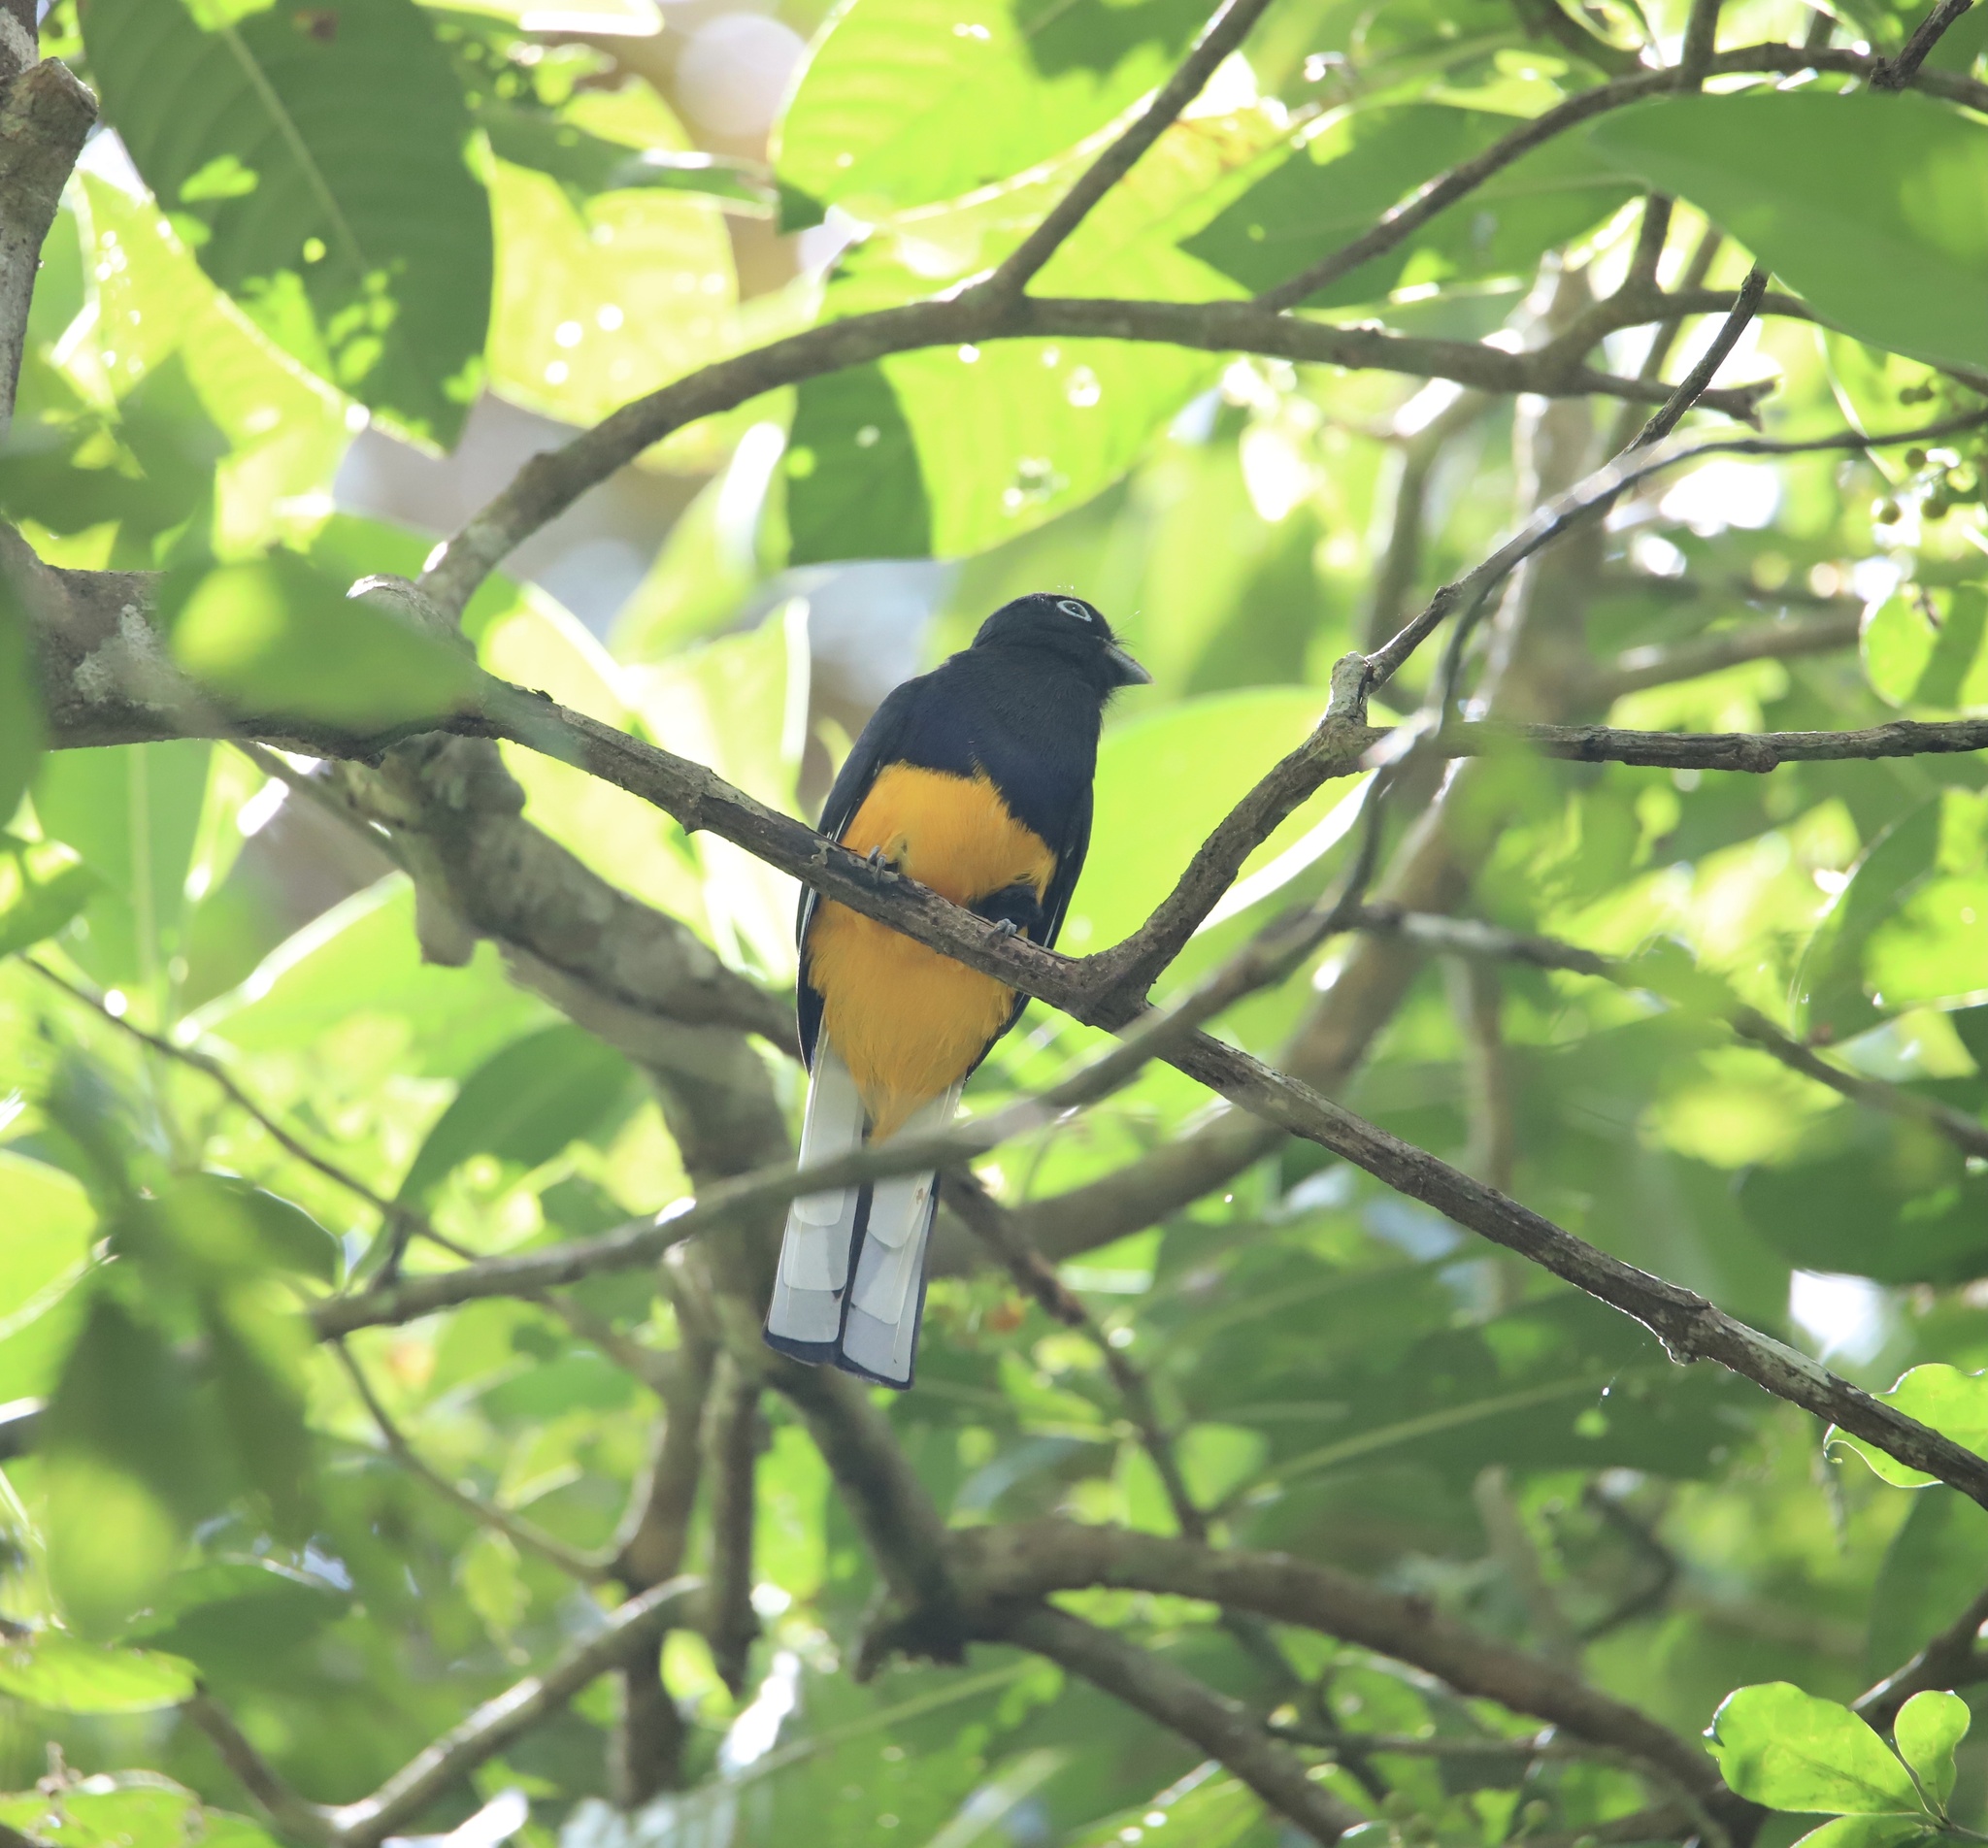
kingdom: Animalia
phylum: Chordata
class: Aves
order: Trogoniformes
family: Trogonidae
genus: Trogon
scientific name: Trogon chionurus
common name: White-tailed trogon
